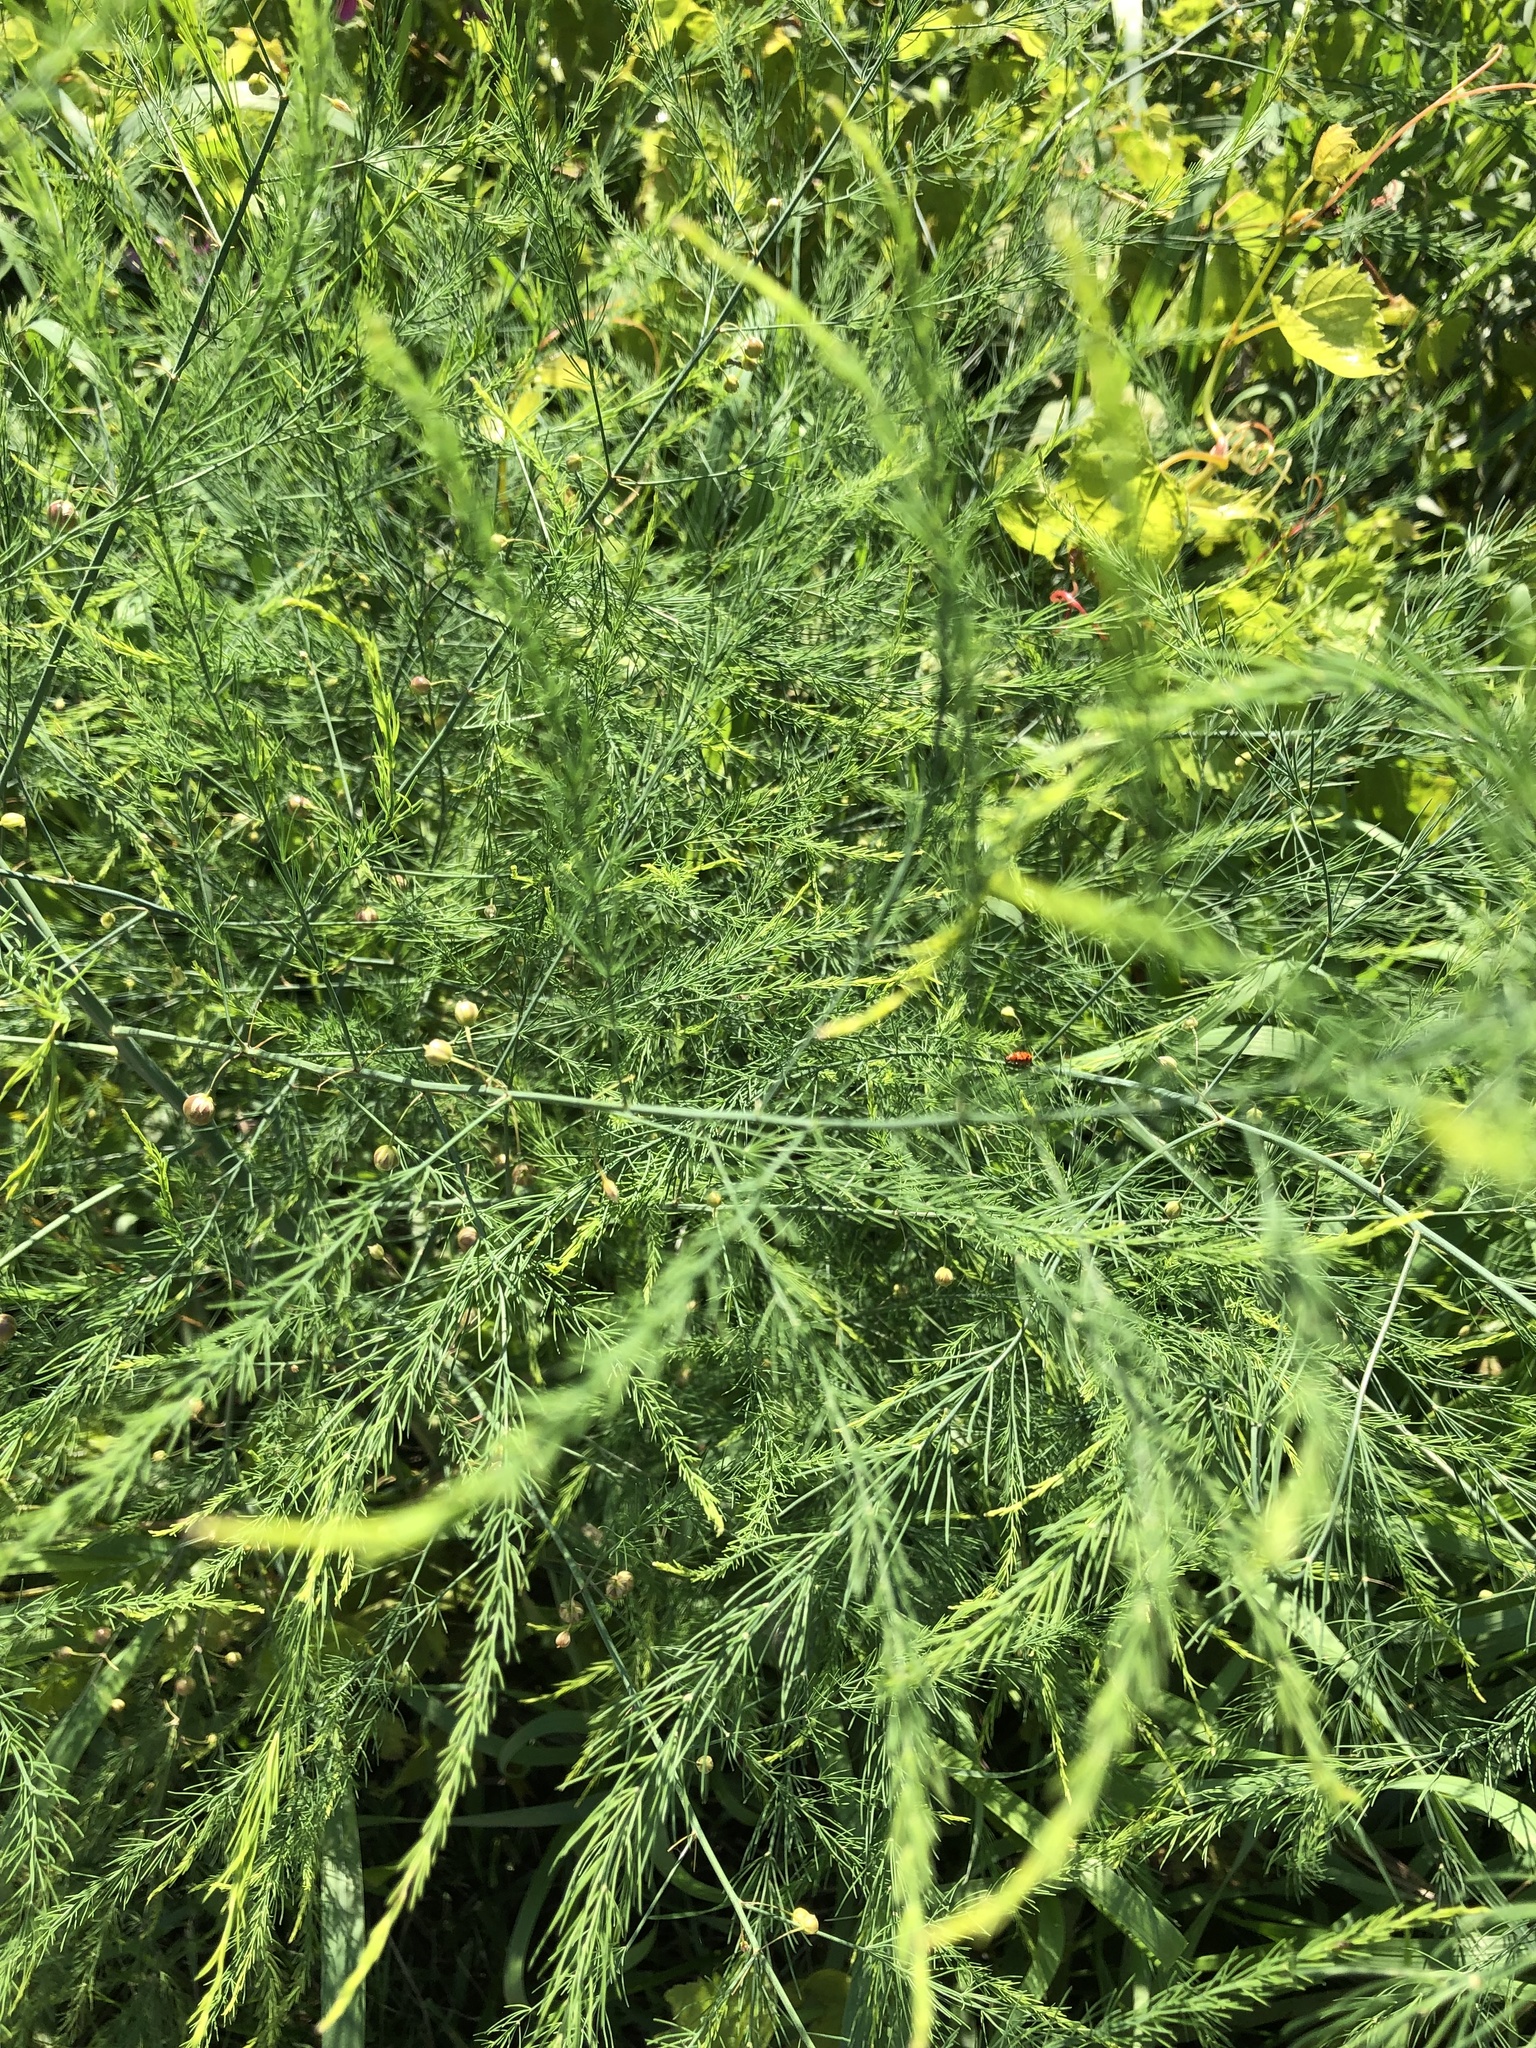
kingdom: Plantae
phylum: Tracheophyta
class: Liliopsida
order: Asparagales
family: Asparagaceae
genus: Asparagus
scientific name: Asparagus officinalis
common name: Garden asparagus
